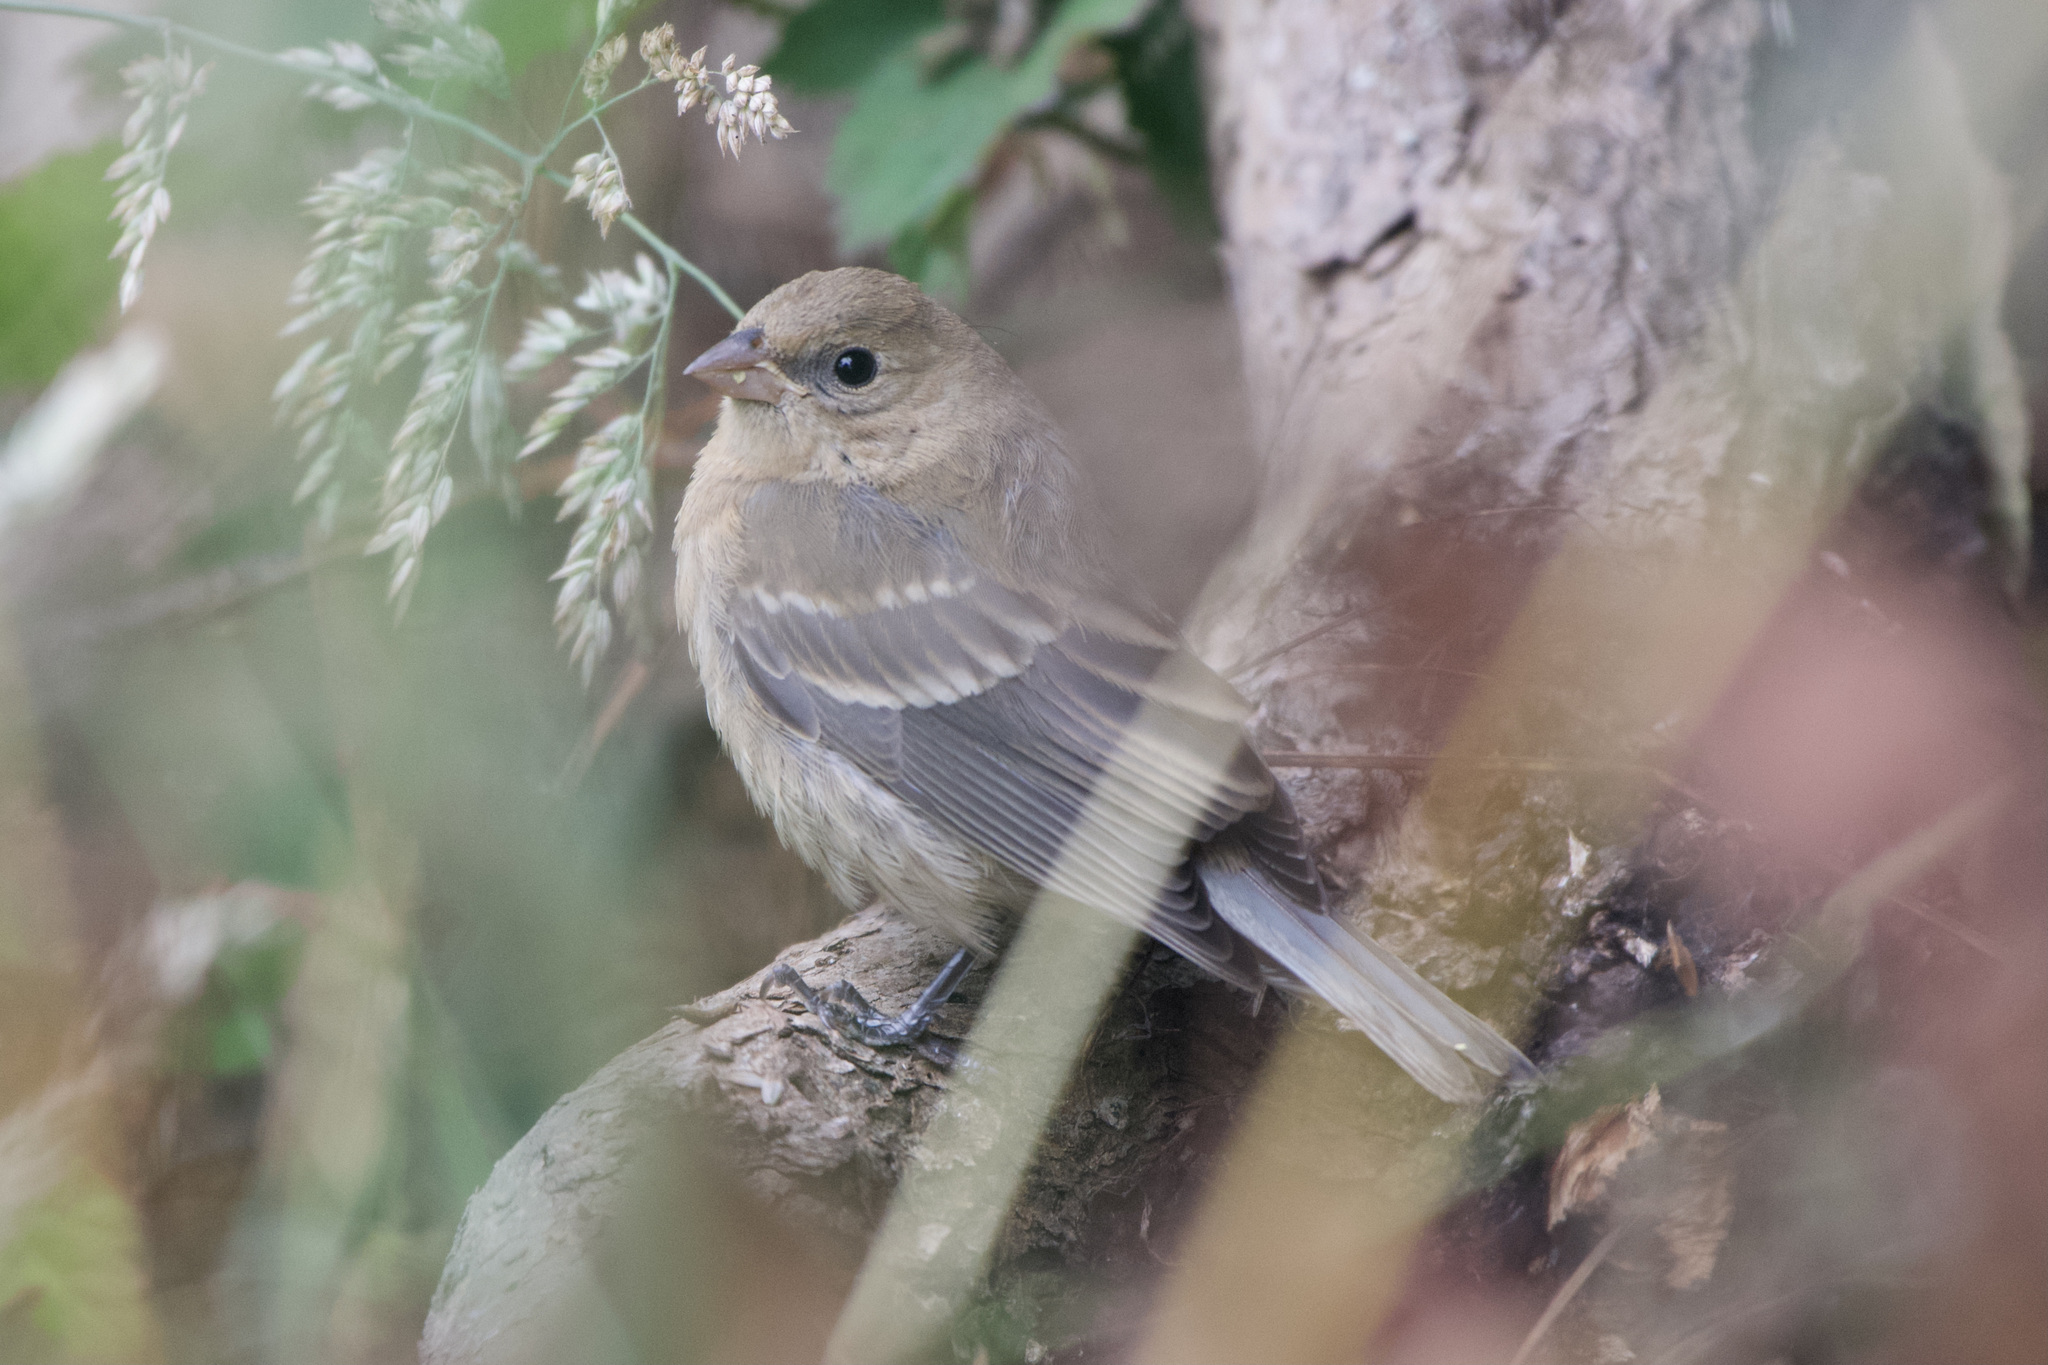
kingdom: Animalia
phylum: Chordata
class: Aves
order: Passeriformes
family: Cardinalidae
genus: Passerina
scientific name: Passerina amoena
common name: Lazuli bunting
